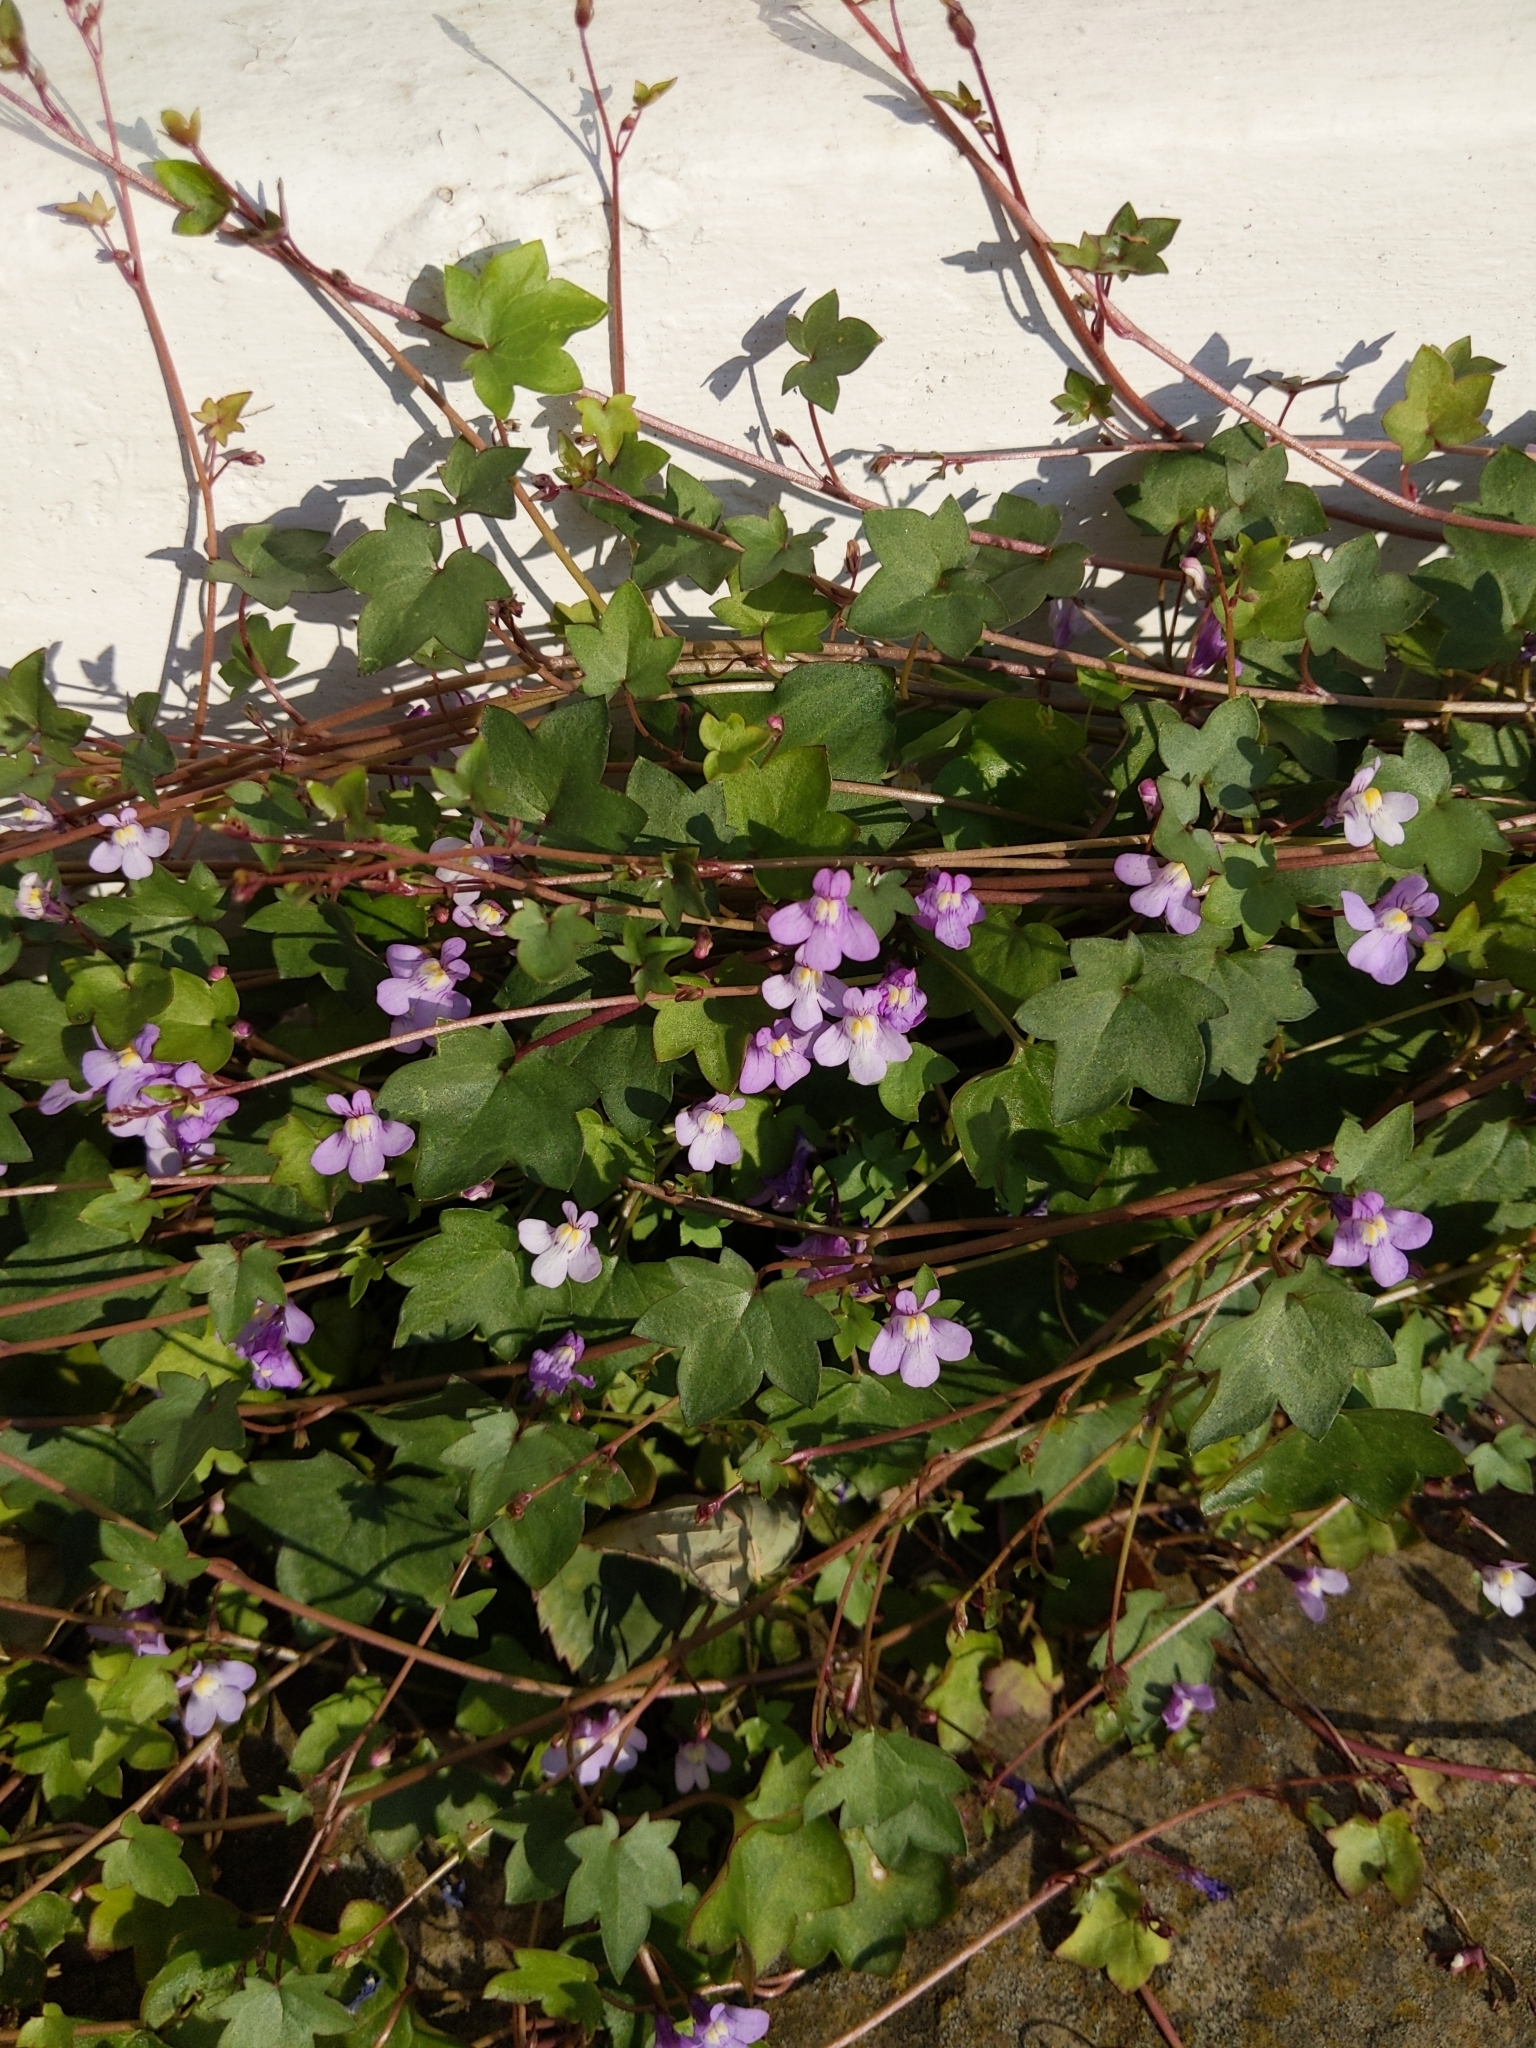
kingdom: Plantae
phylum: Tracheophyta
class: Magnoliopsida
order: Lamiales
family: Plantaginaceae
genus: Cymbalaria
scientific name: Cymbalaria muralis
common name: Ivy-leaved toadflax
